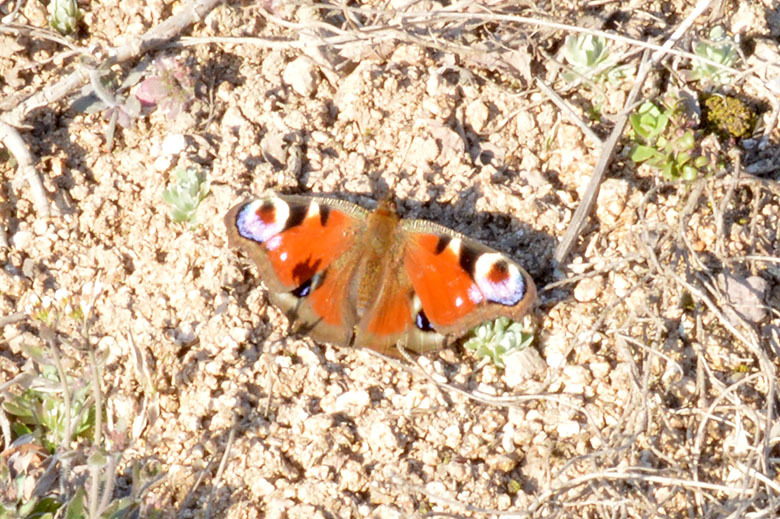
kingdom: Animalia
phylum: Arthropoda
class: Insecta
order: Lepidoptera
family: Nymphalidae
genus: Aglais
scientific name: Aglais io
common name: Peacock
